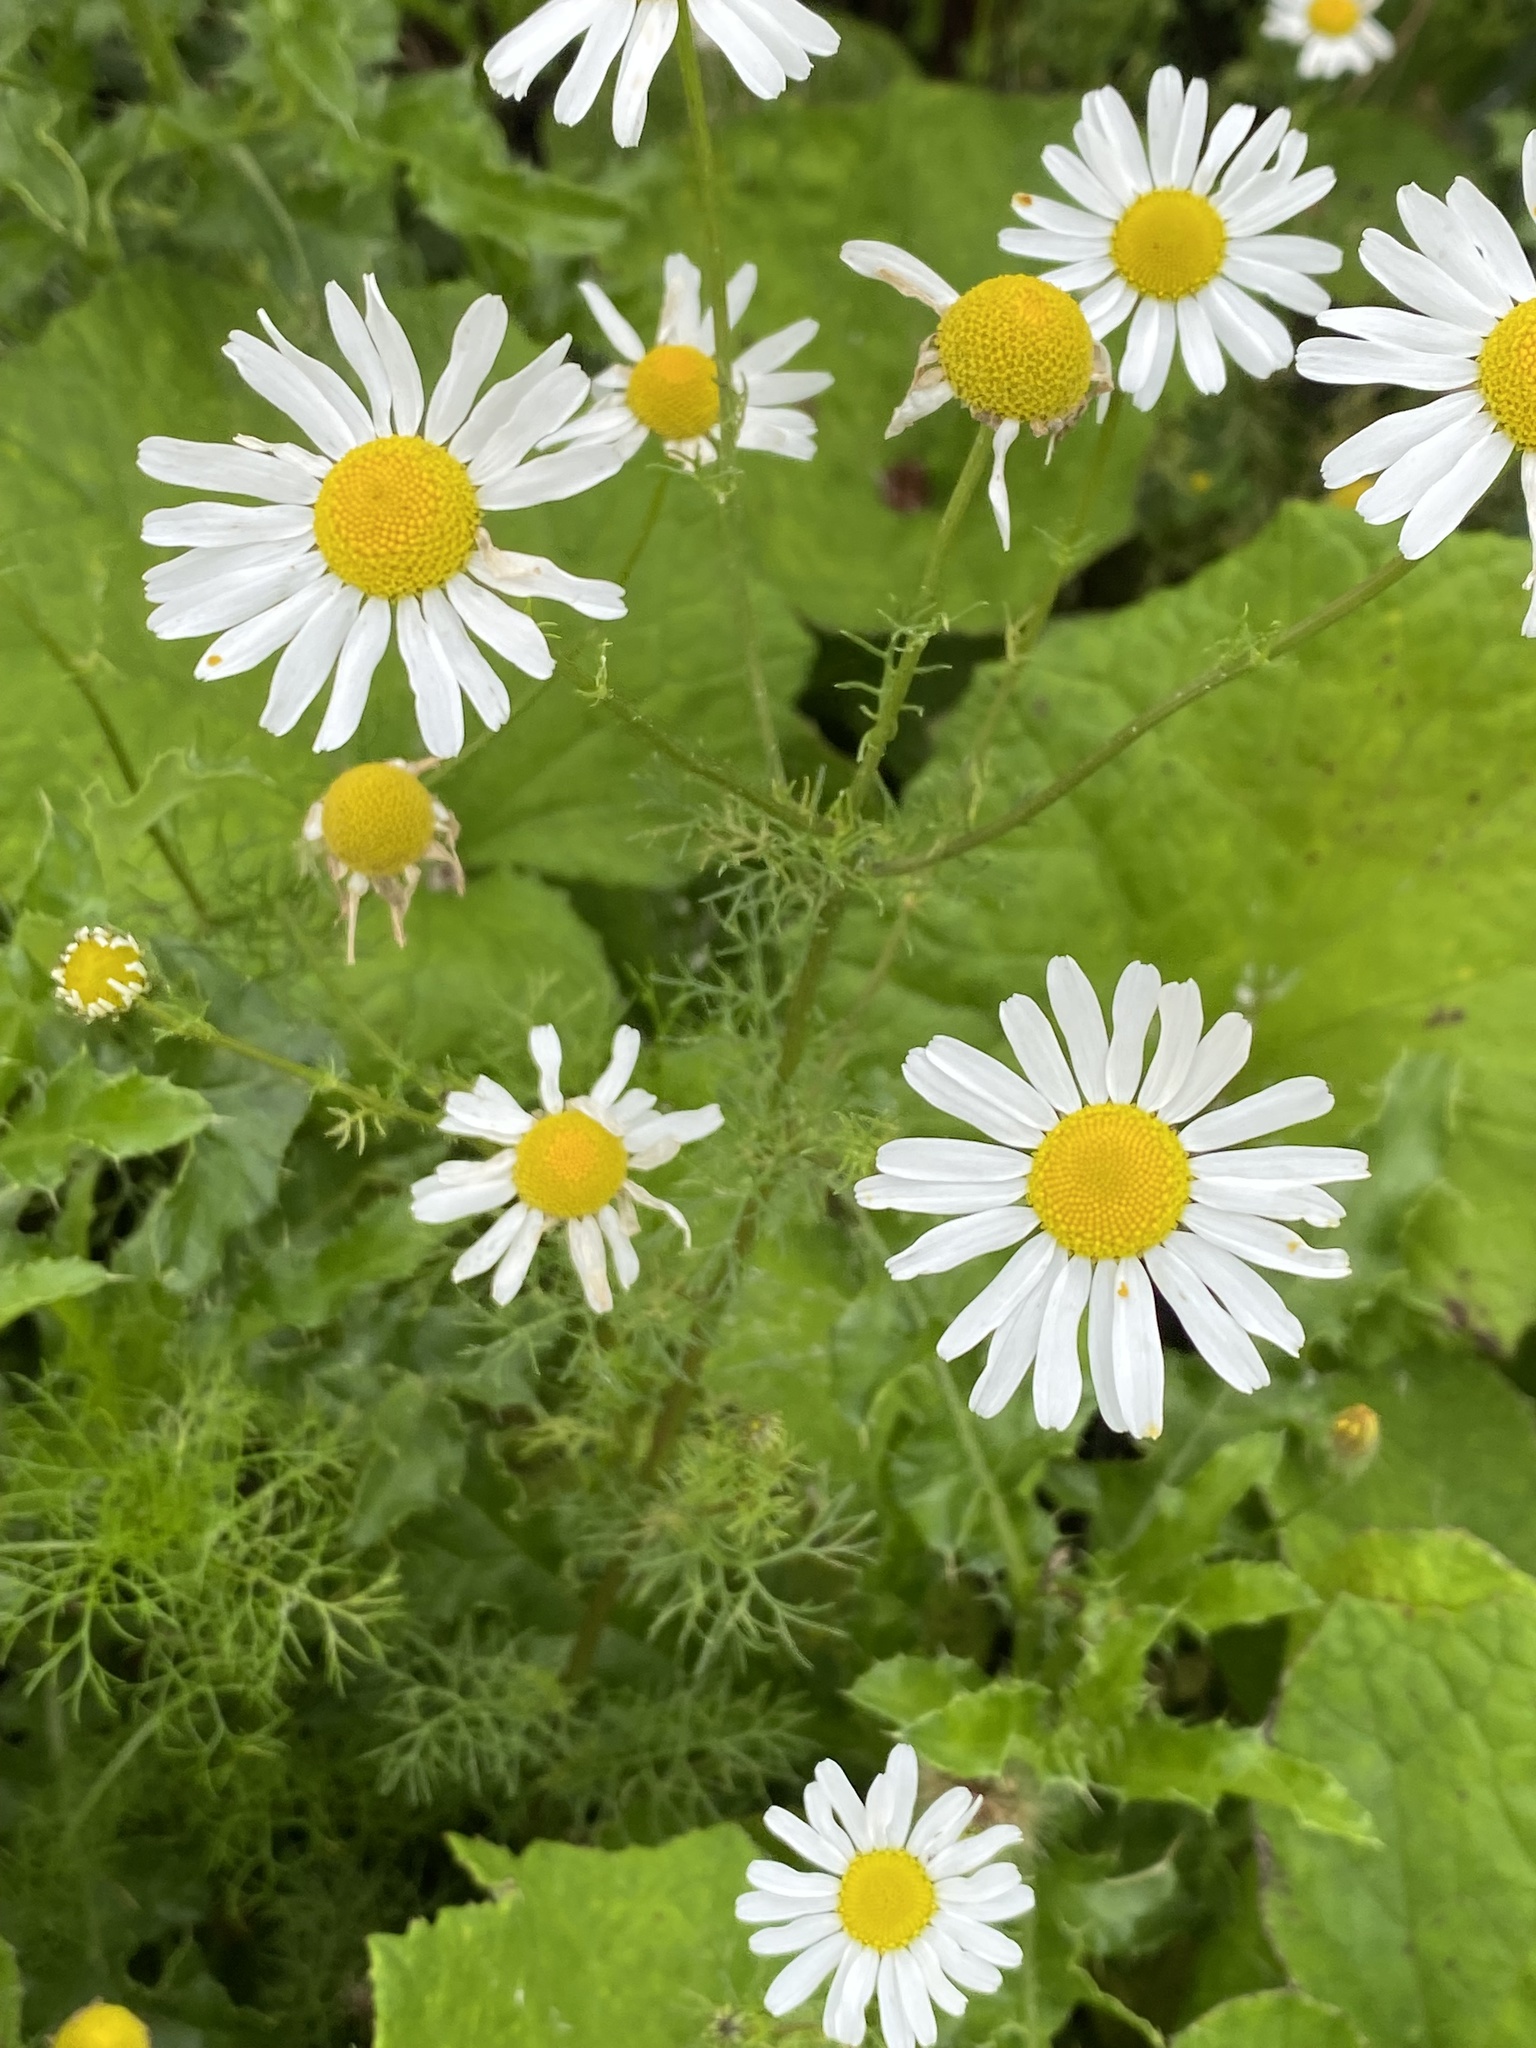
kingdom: Plantae
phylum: Tracheophyta
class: Magnoliopsida
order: Asterales
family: Asteraceae
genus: Tripleurospermum
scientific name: Tripleurospermum inodorum
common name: Scentless mayweed
